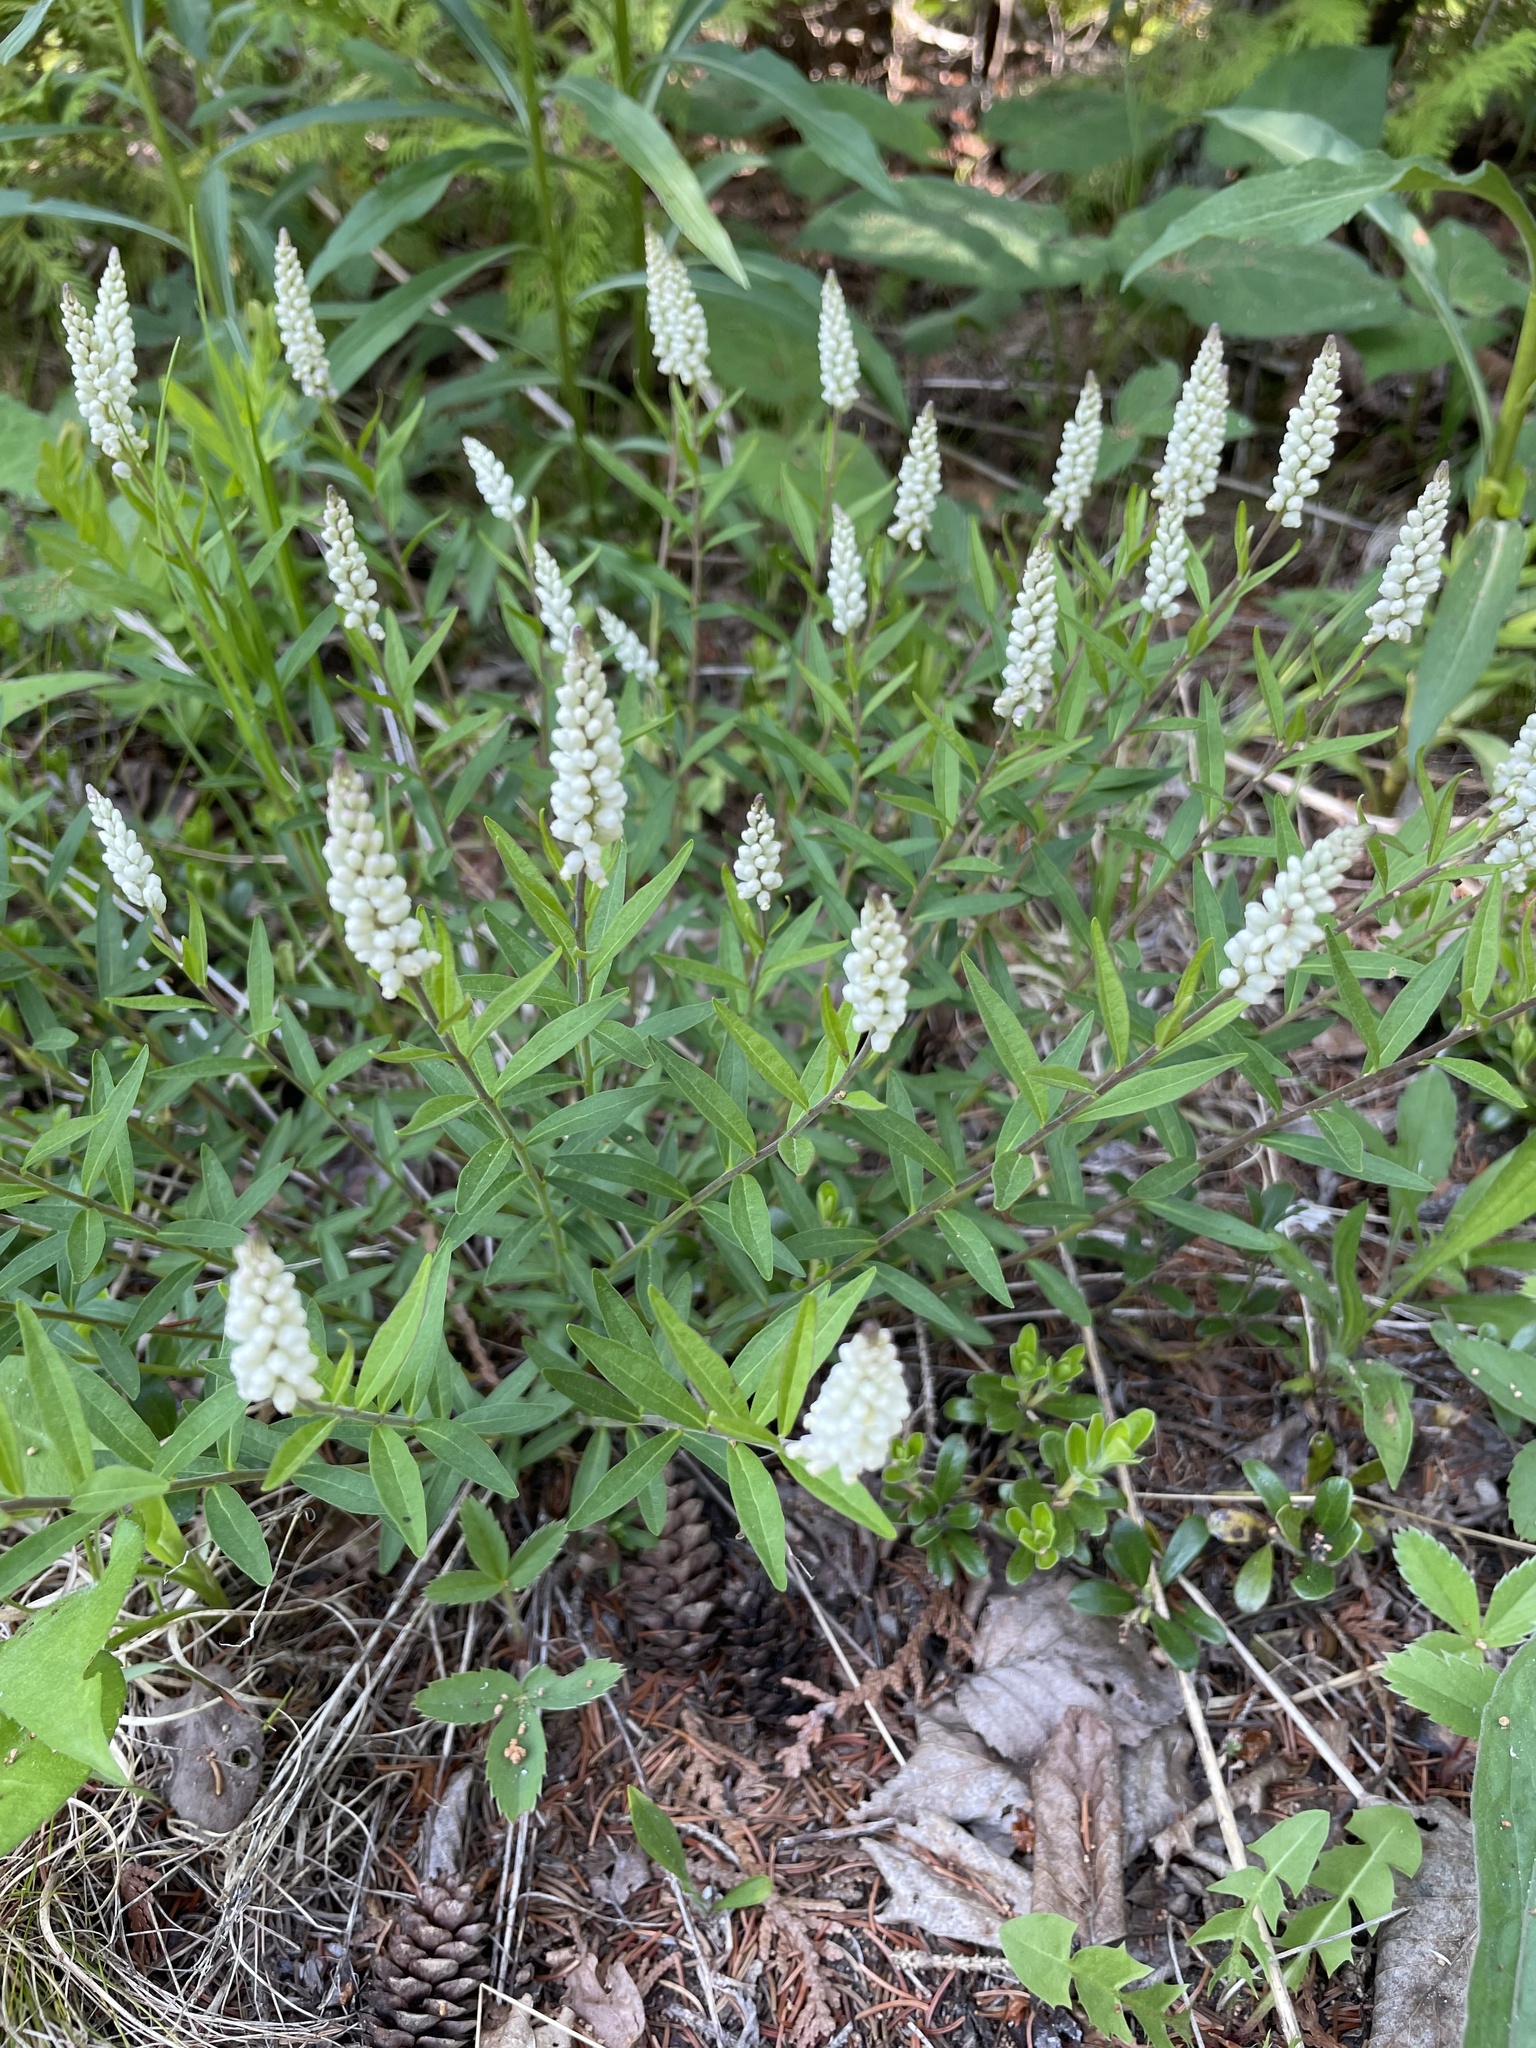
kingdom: Plantae
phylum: Tracheophyta
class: Magnoliopsida
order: Fabales
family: Polygalaceae
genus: Polygala
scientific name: Polygala senega
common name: Seneca snakeroot
